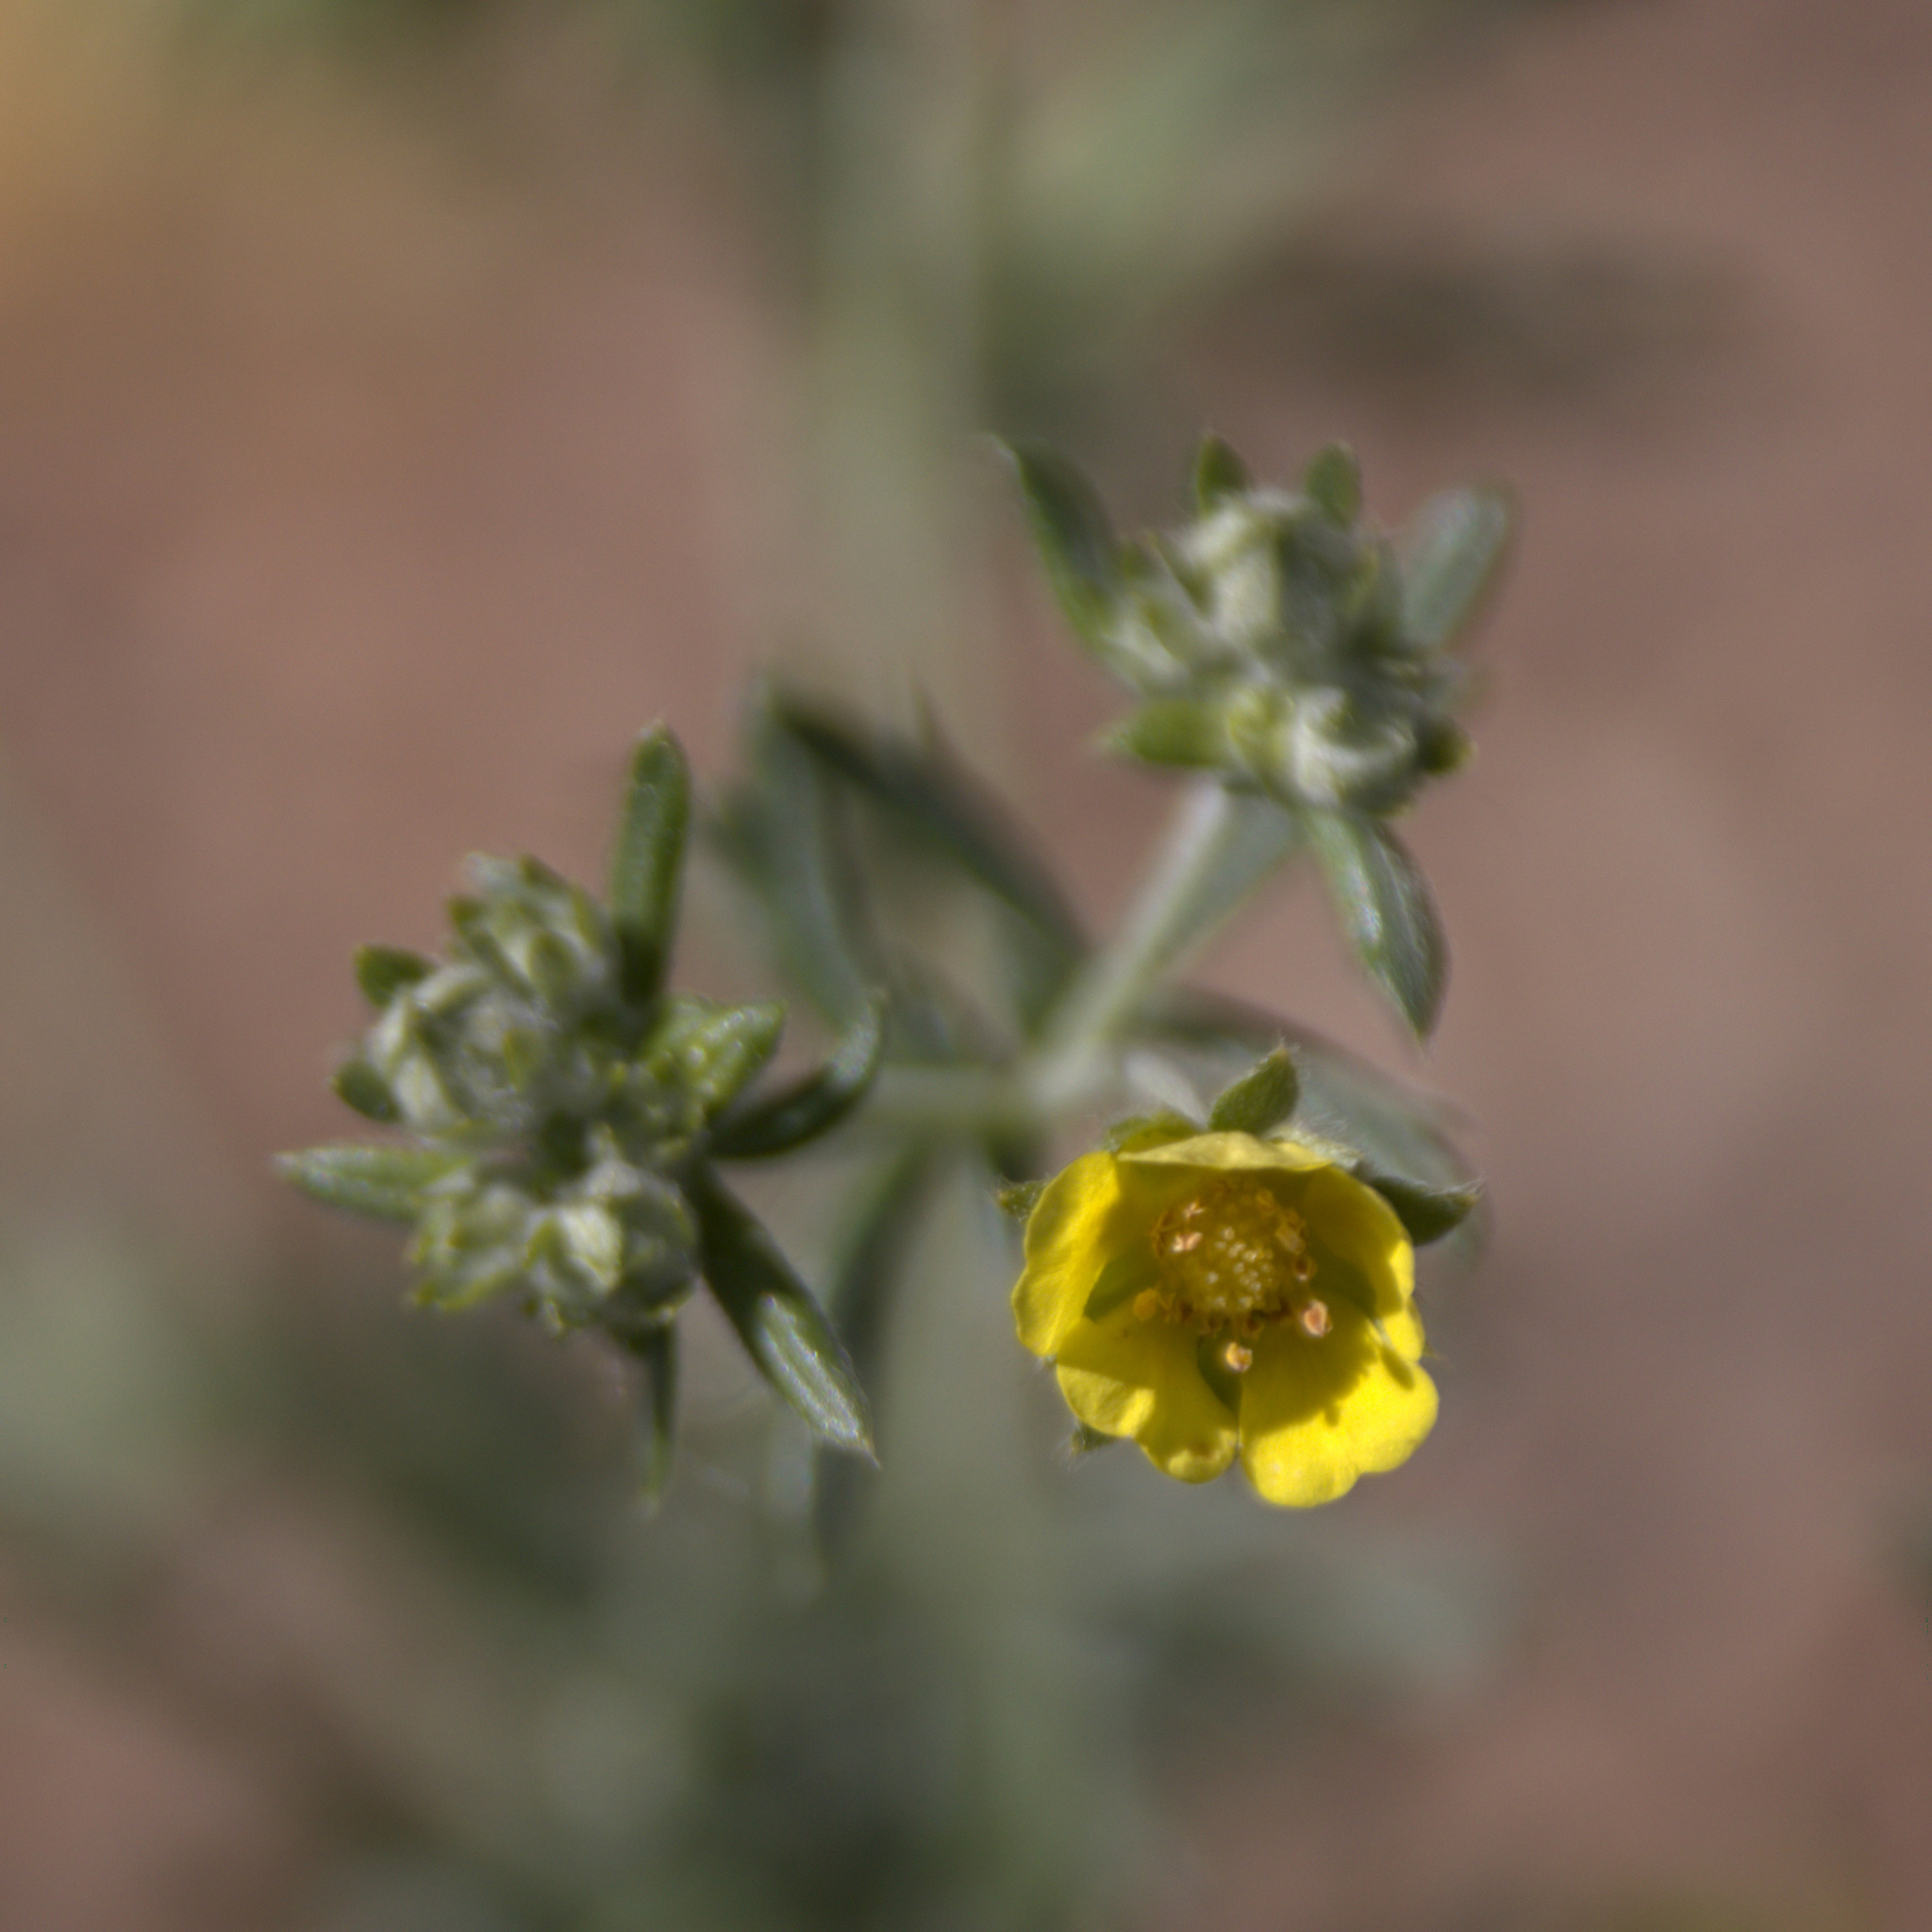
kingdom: Plantae
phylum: Tracheophyta
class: Magnoliopsida
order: Rosales
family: Rosaceae
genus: Potentilla
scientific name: Potentilla argentea
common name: Hoary cinquefoil
